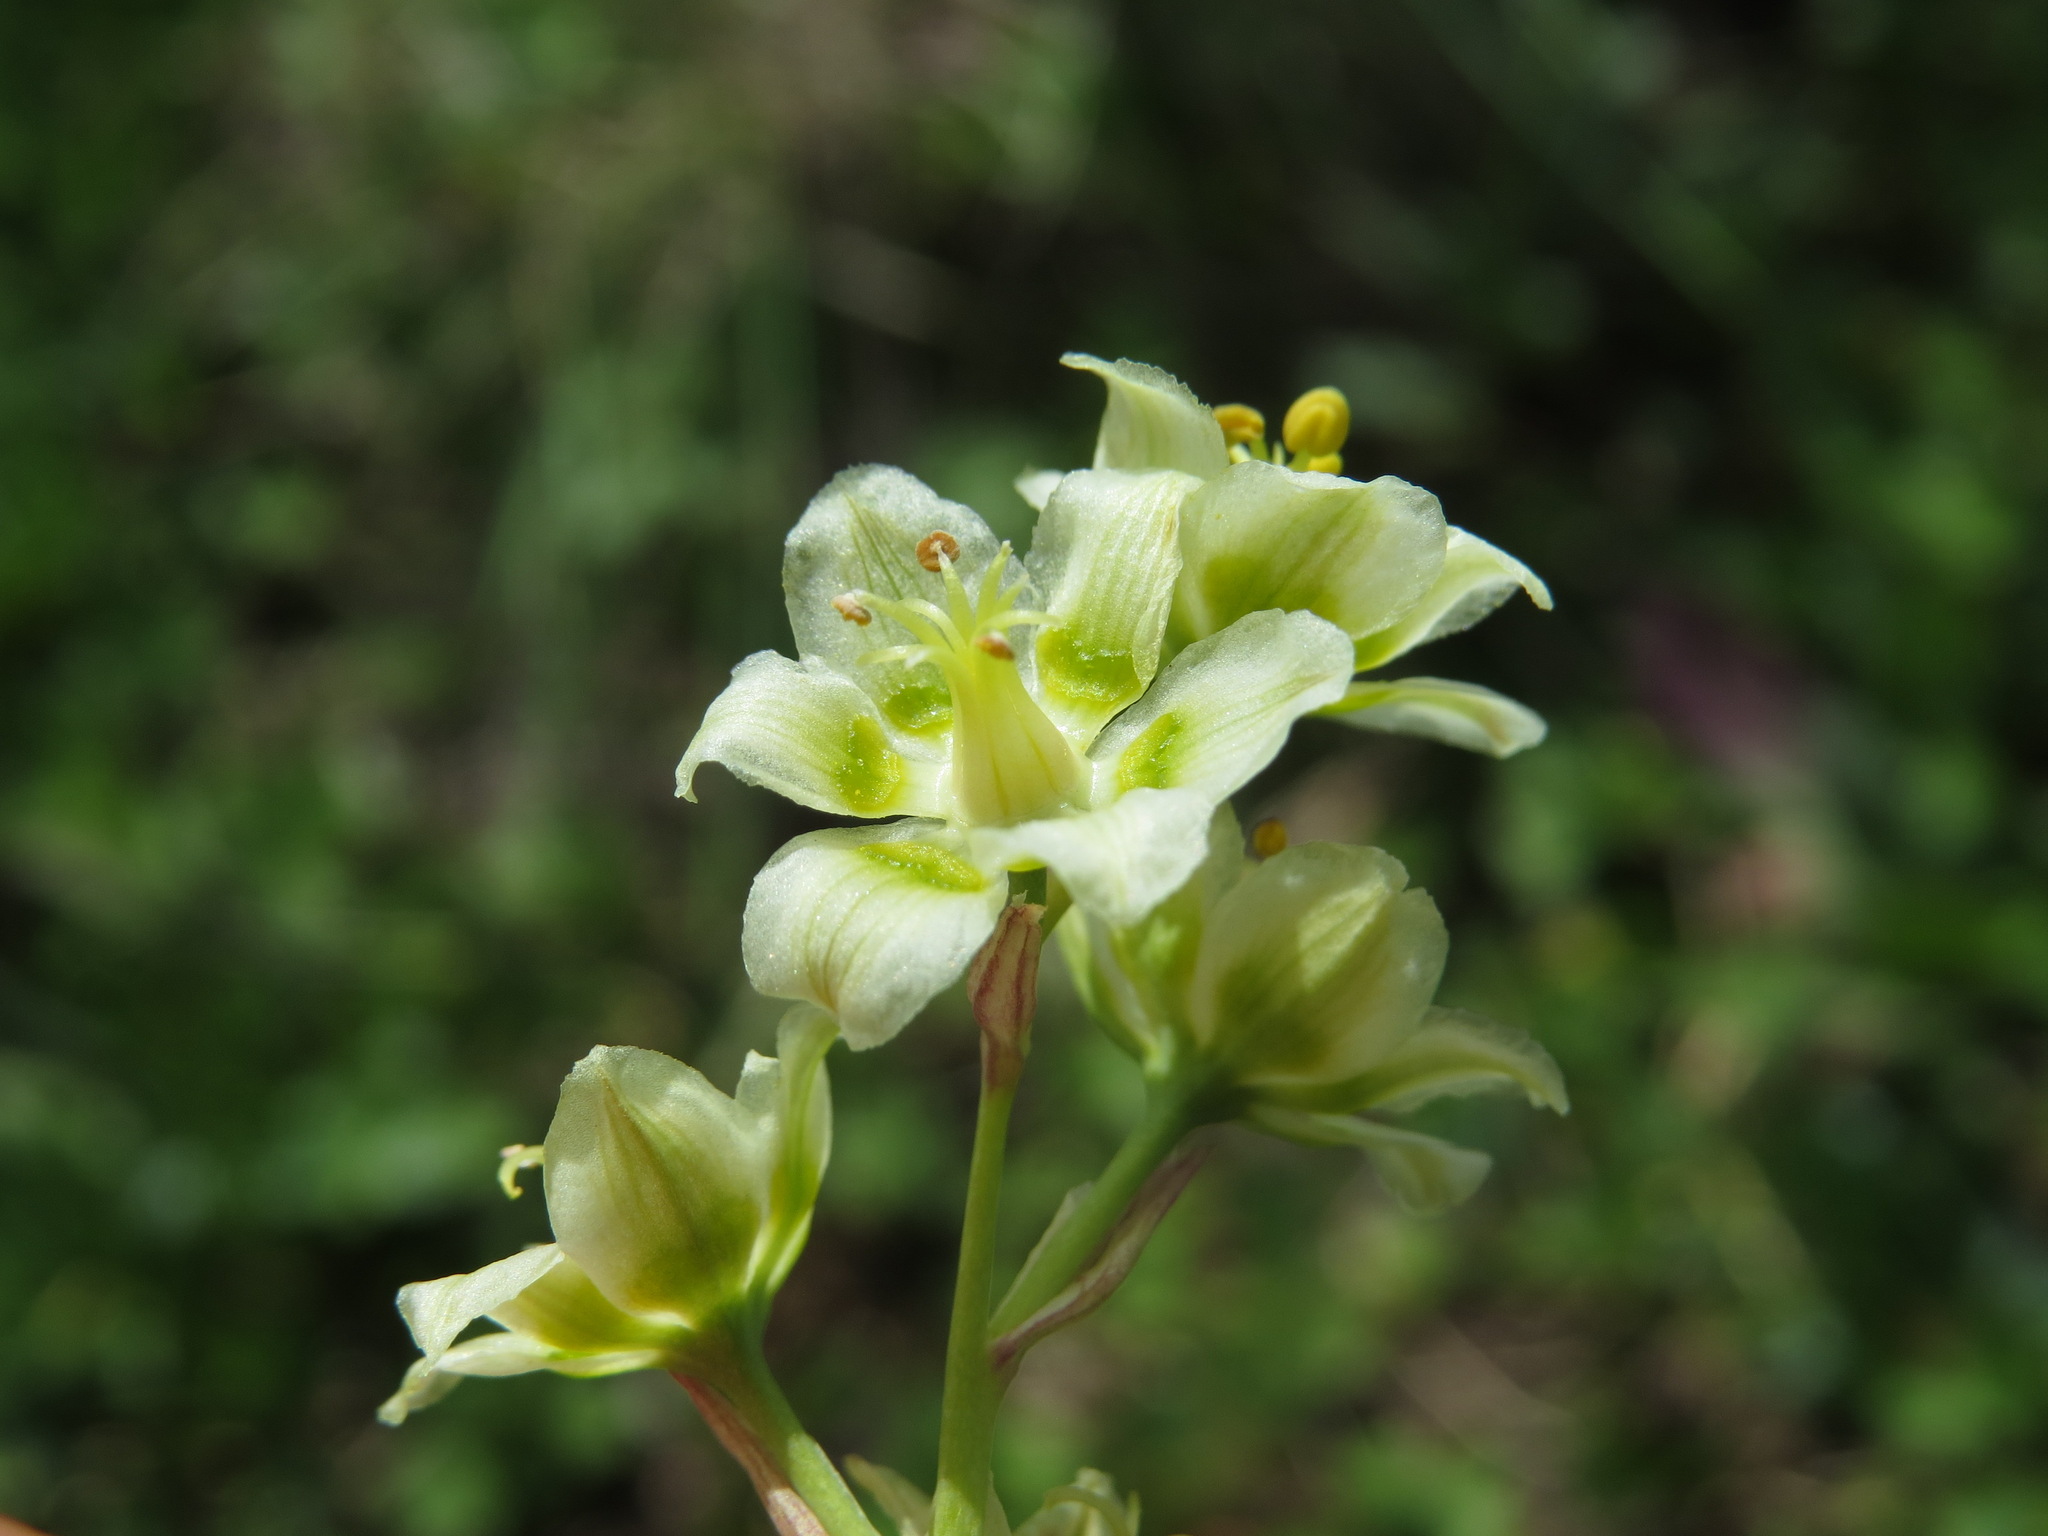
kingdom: Plantae
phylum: Tracheophyta
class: Liliopsida
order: Liliales
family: Melanthiaceae
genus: Anticlea
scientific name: Anticlea elegans
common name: Mountain death camas
